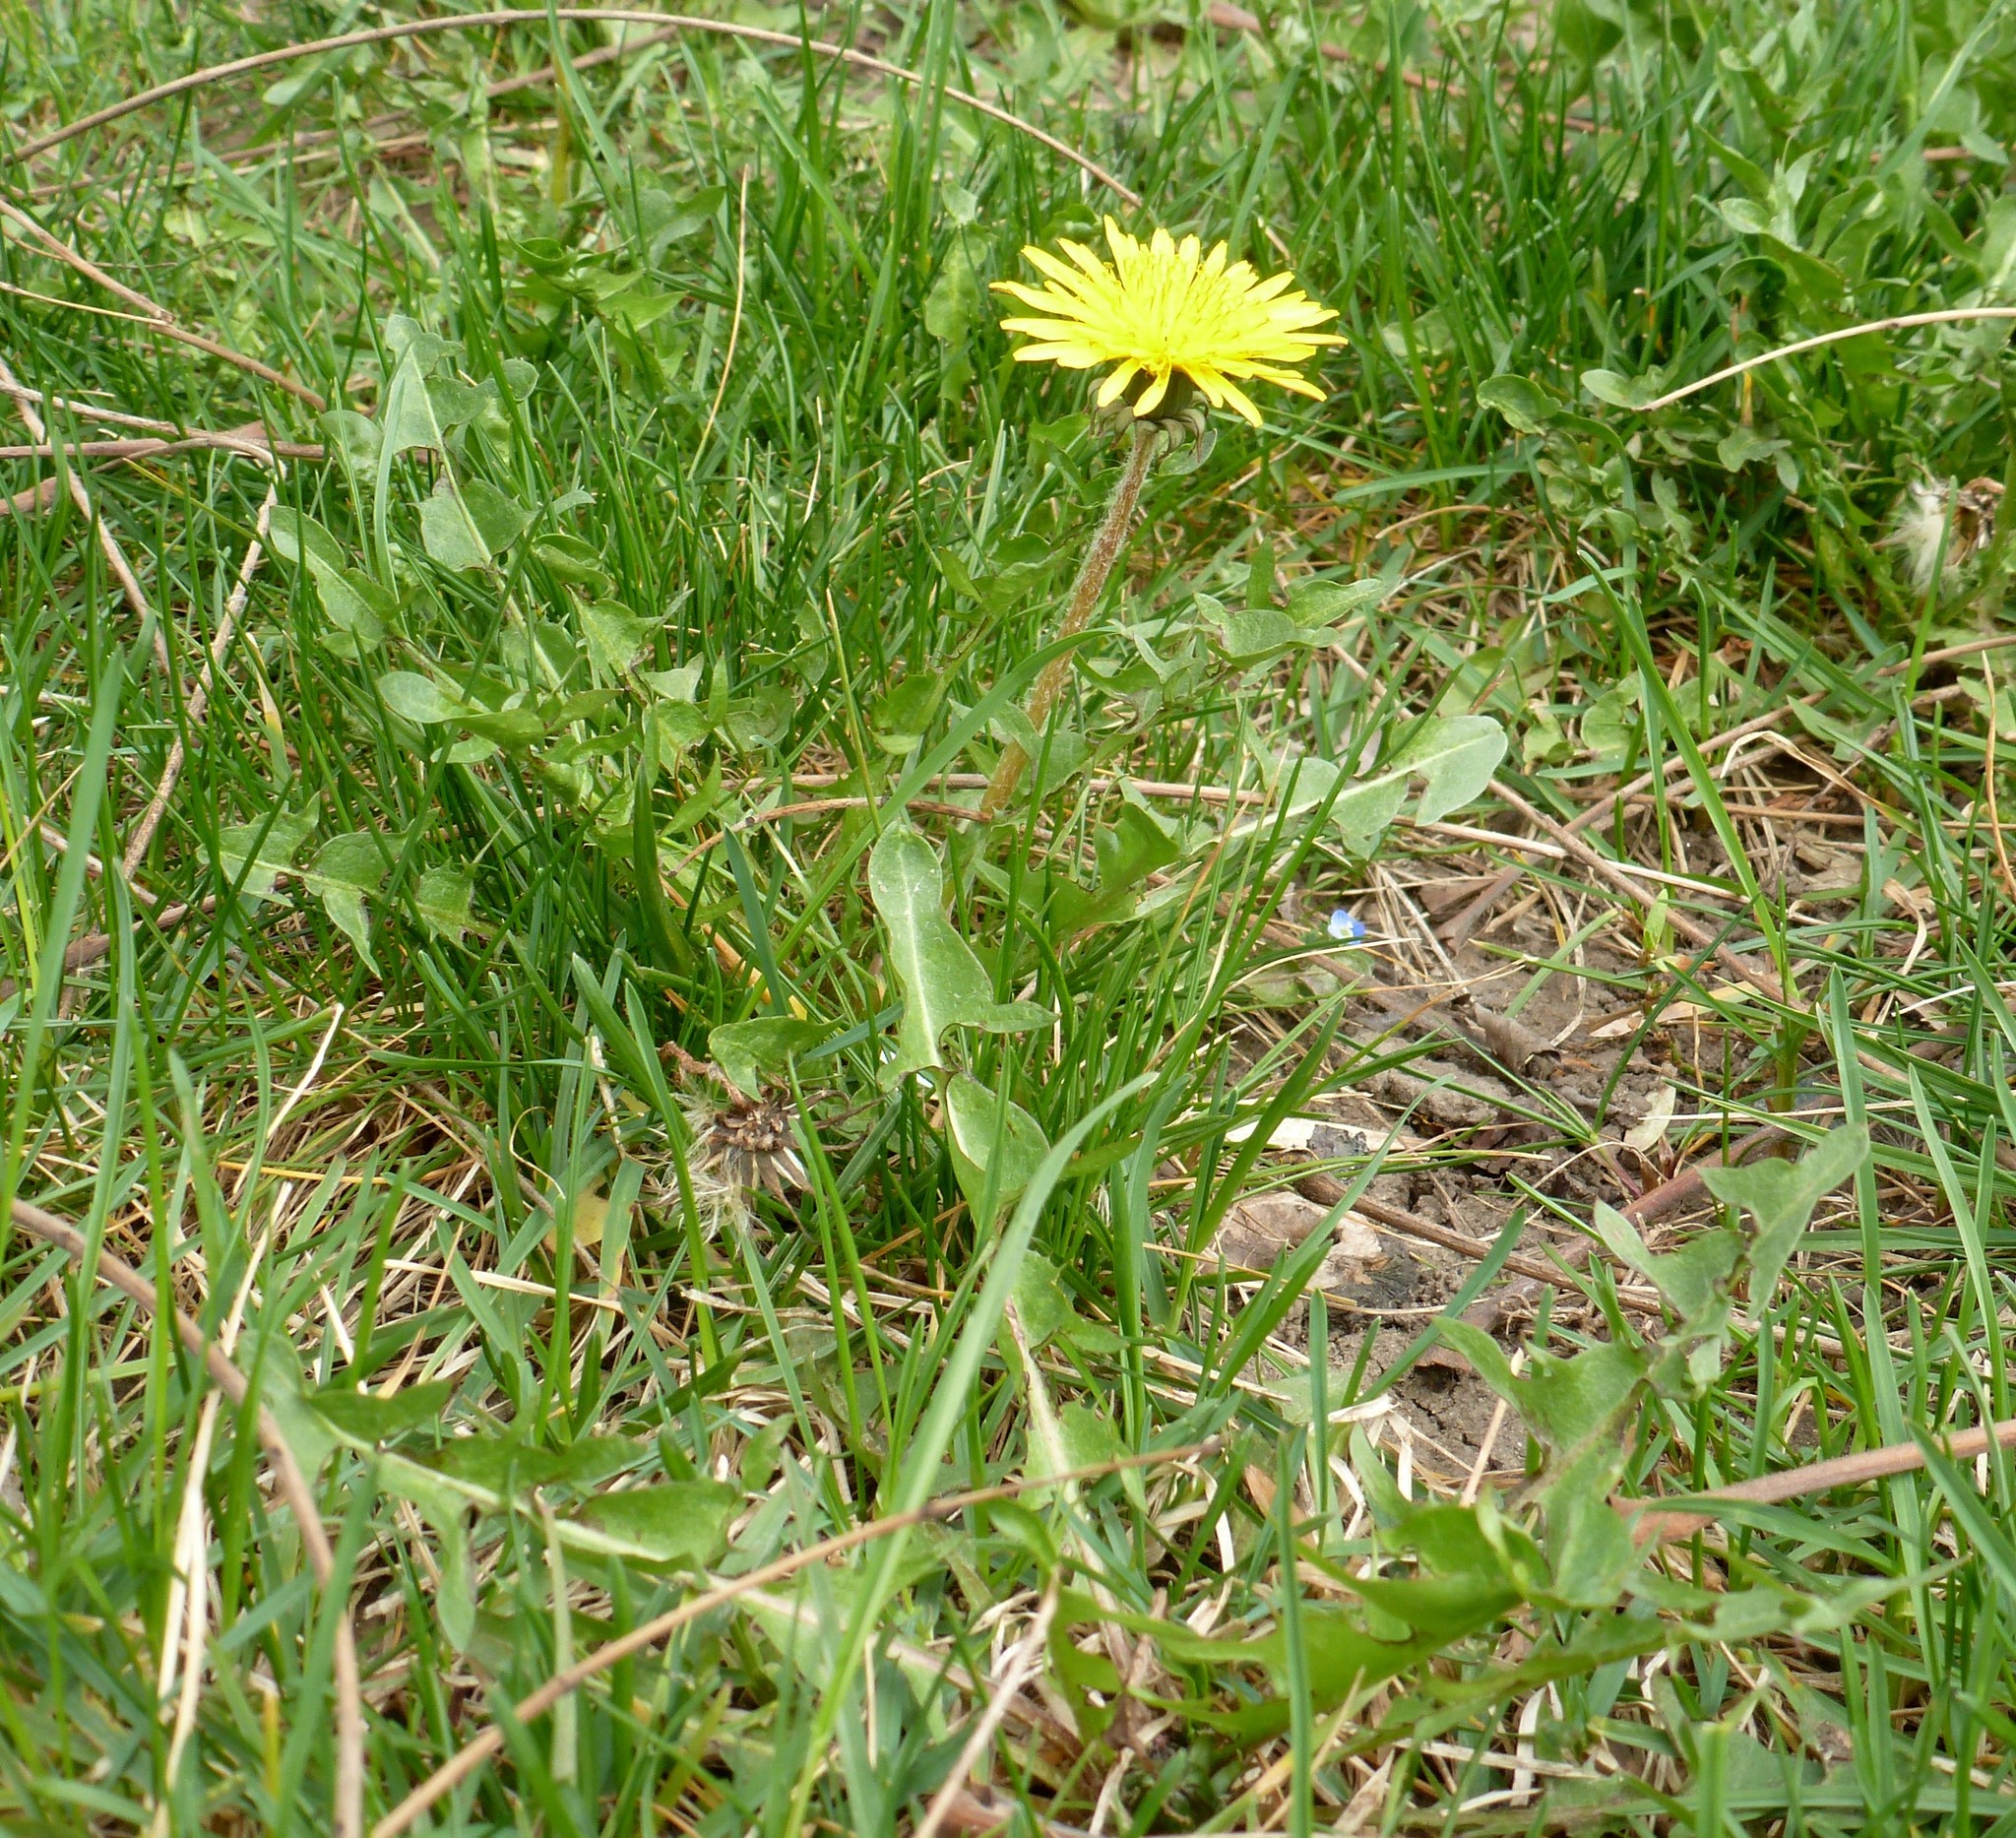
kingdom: Plantae
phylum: Tracheophyta
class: Magnoliopsida
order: Asterales
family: Asteraceae
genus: Taraxacum
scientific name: Taraxacum officinale
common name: Common dandelion
